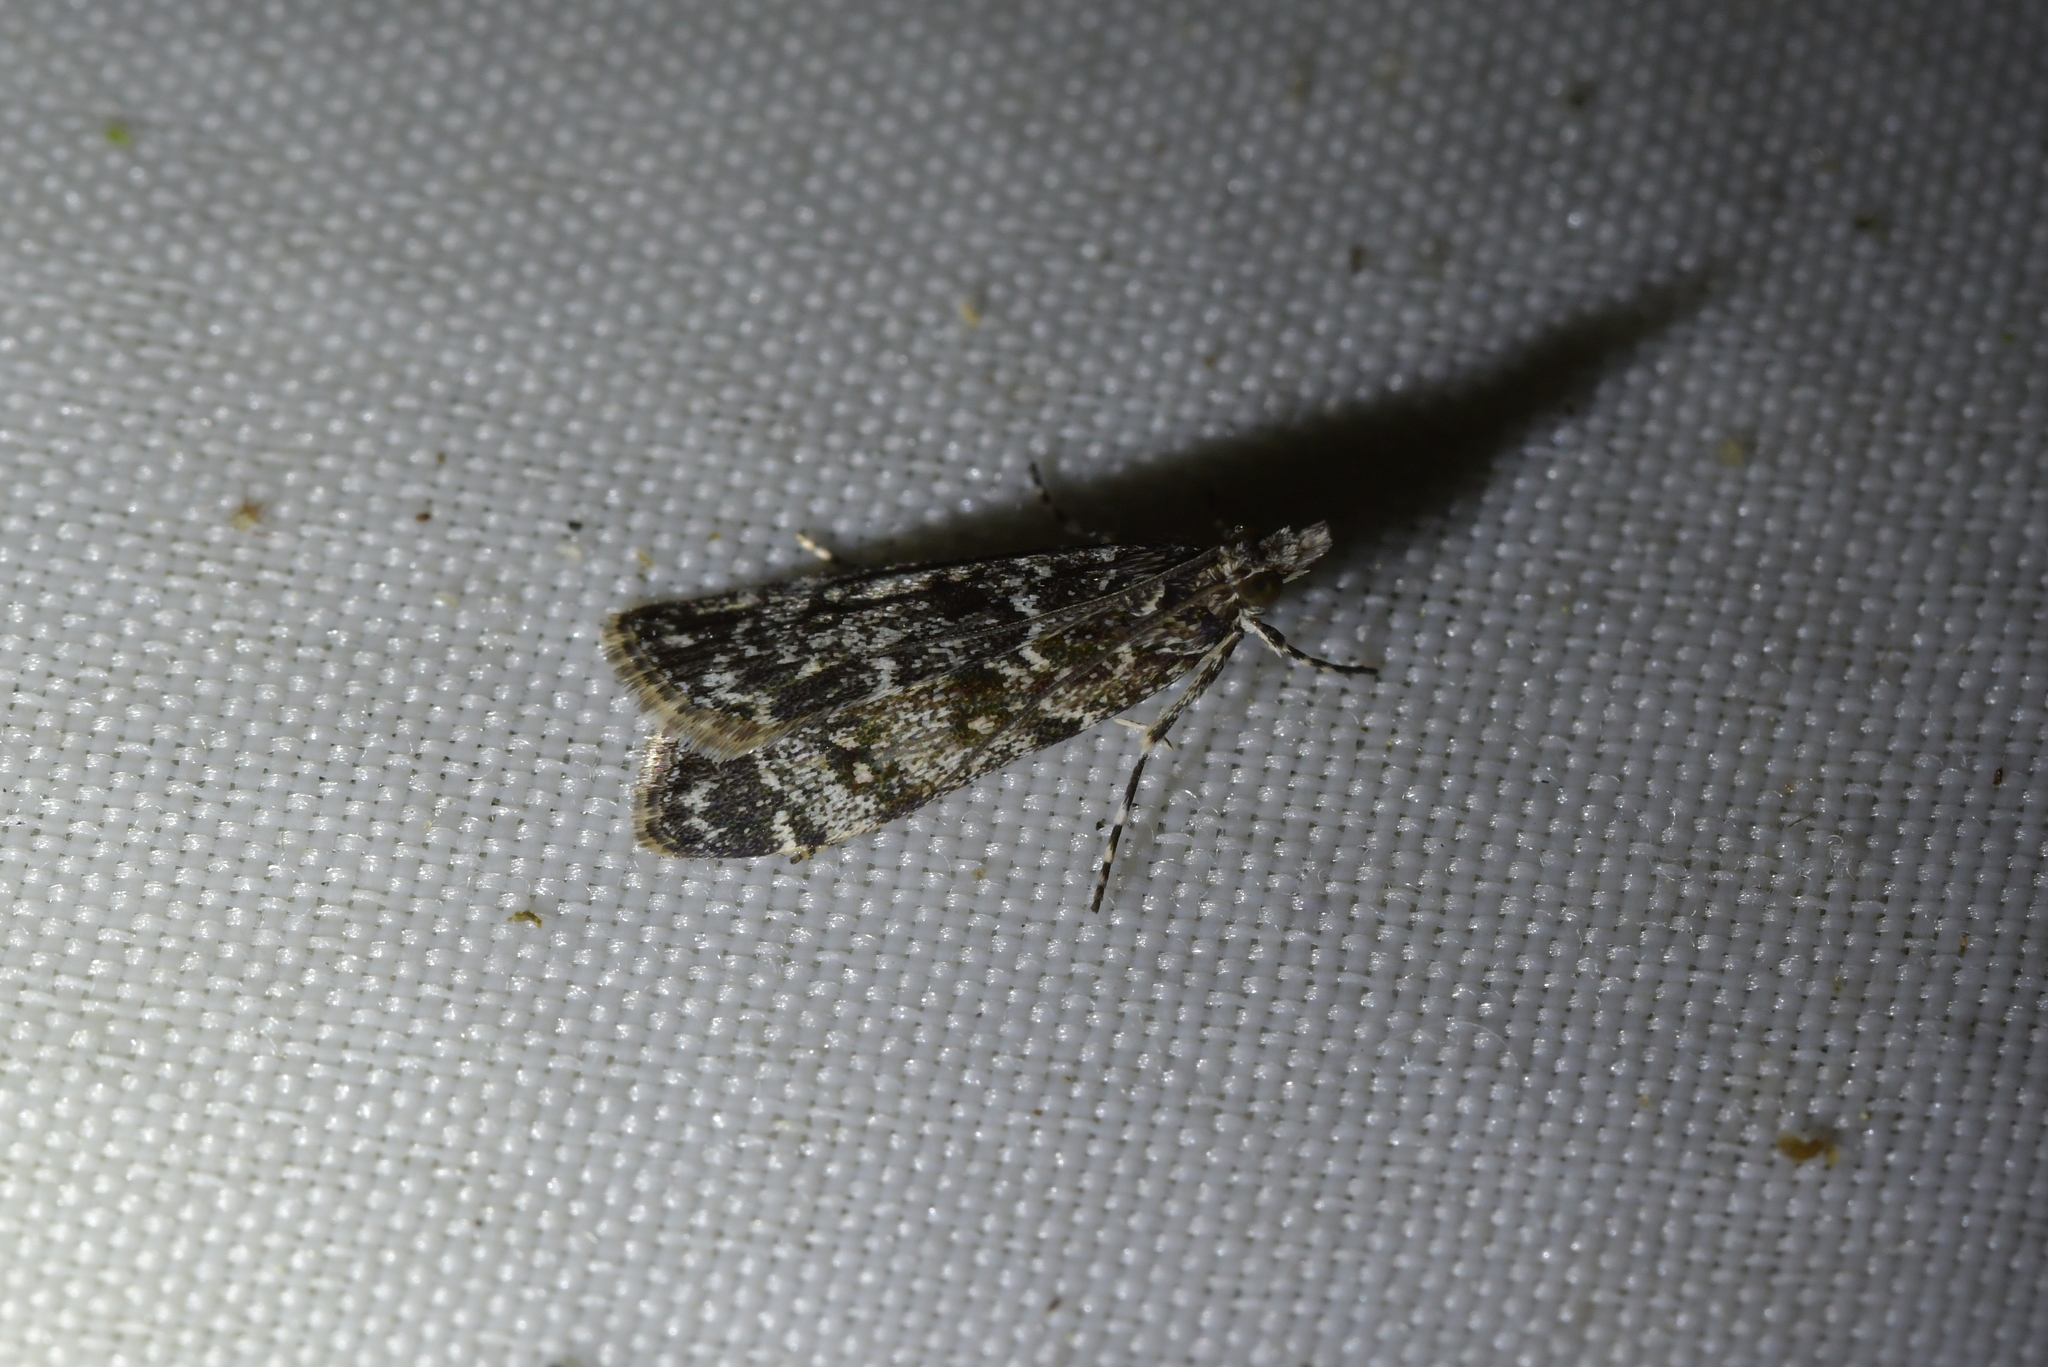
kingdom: Animalia
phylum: Arthropoda
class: Insecta
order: Lepidoptera
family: Crambidae
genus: Eudonia
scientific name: Eudonia philerga
